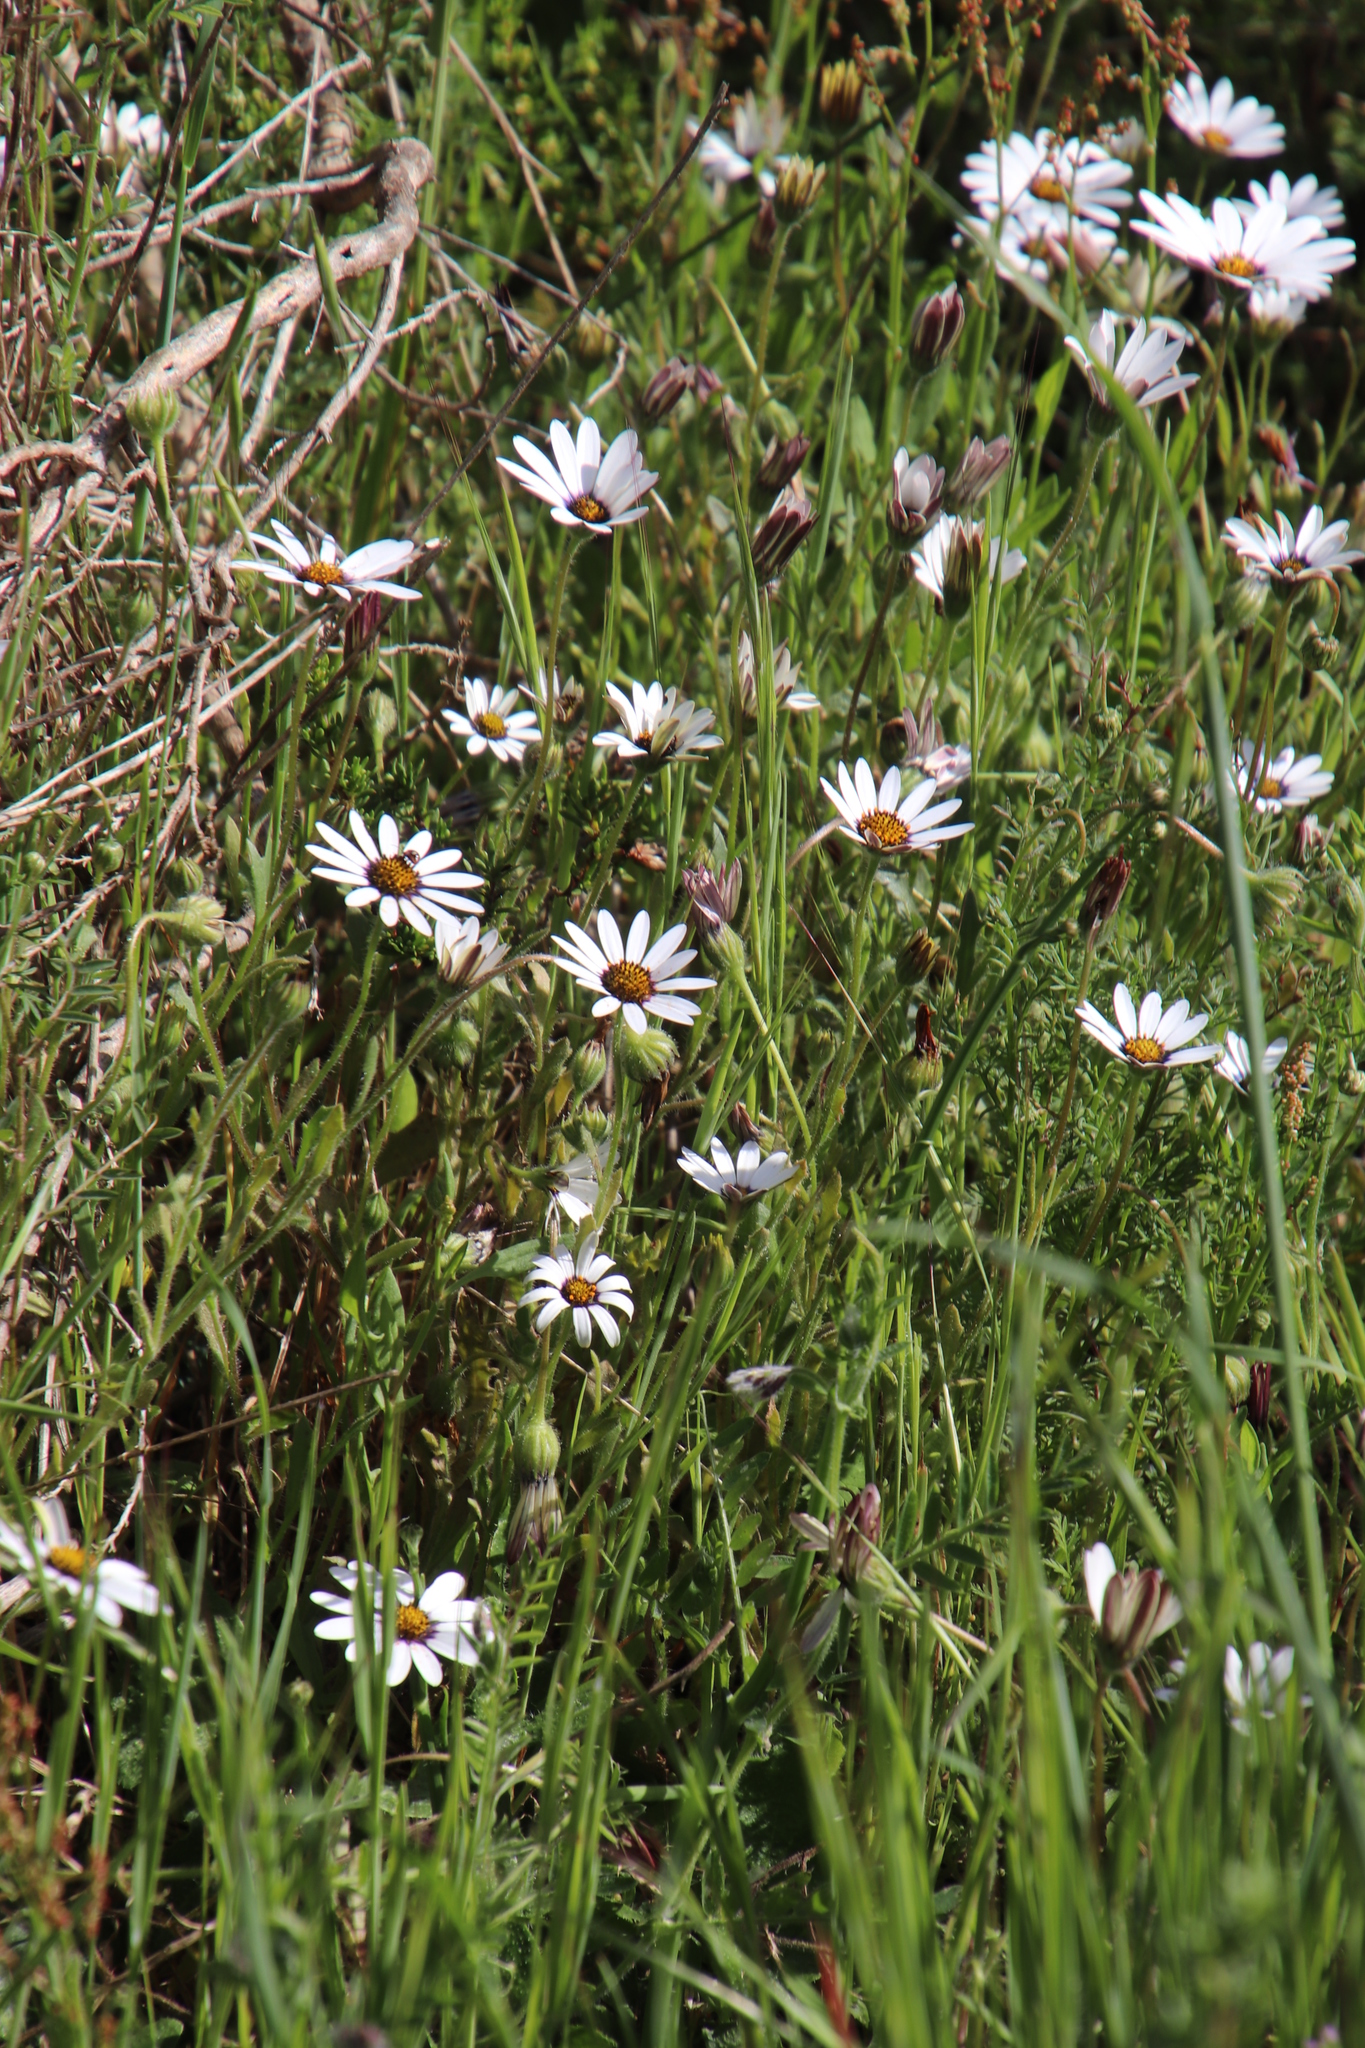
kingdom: Plantae
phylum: Tracheophyta
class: Magnoliopsida
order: Asterales
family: Asteraceae
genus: Dimorphotheca
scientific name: Dimorphotheca pluvialis
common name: Weather prophet
